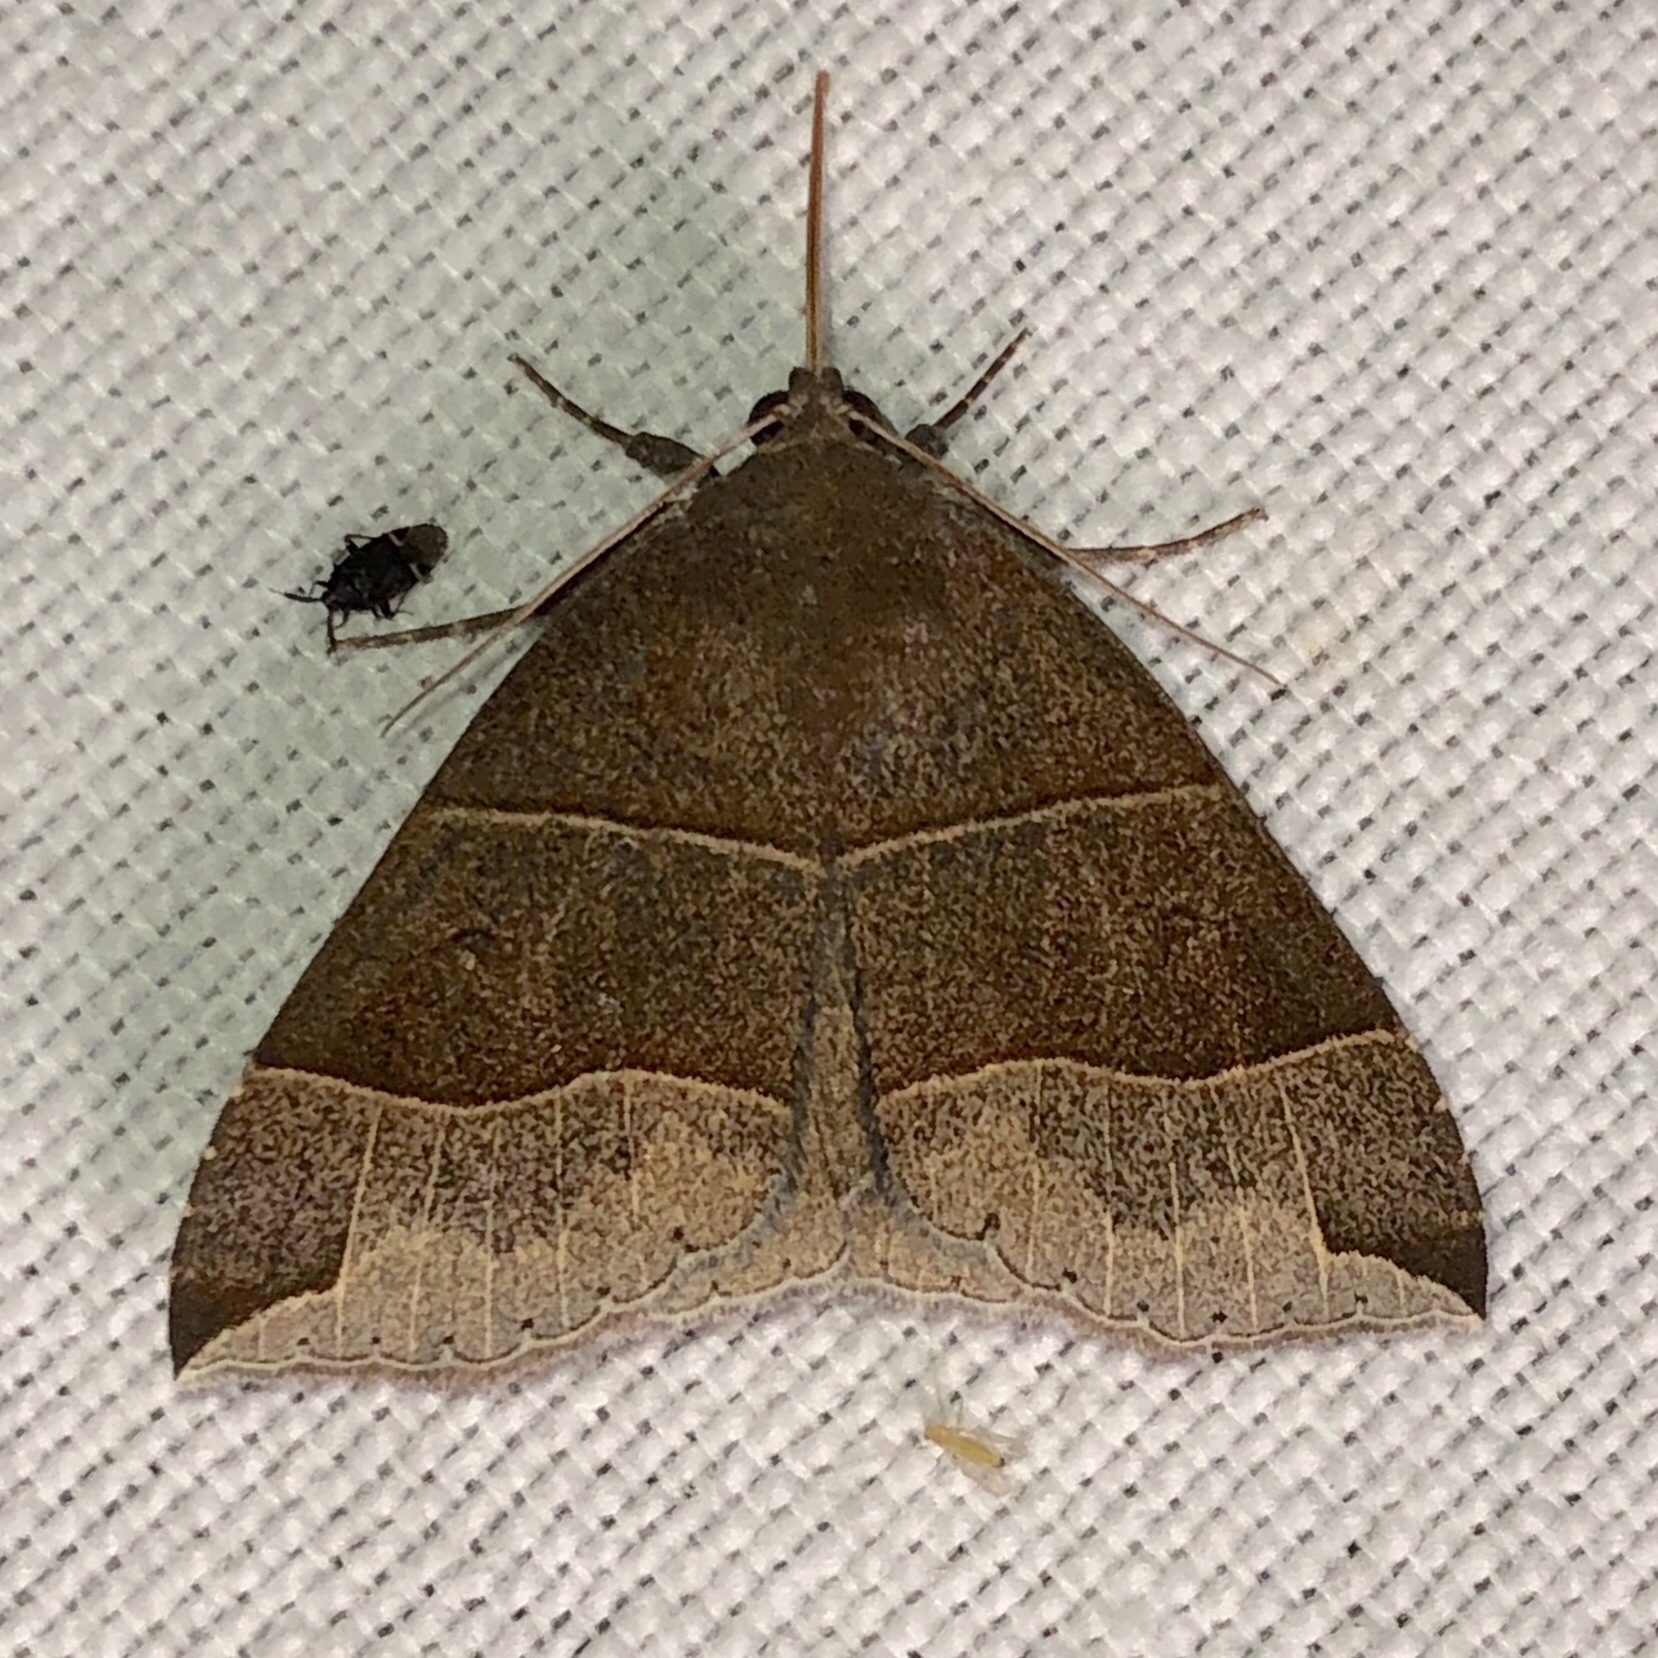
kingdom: Animalia
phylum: Arthropoda
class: Insecta
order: Lepidoptera
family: Erebidae
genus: Parallelia
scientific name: Parallelia bistriaris
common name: Maple looper moth
